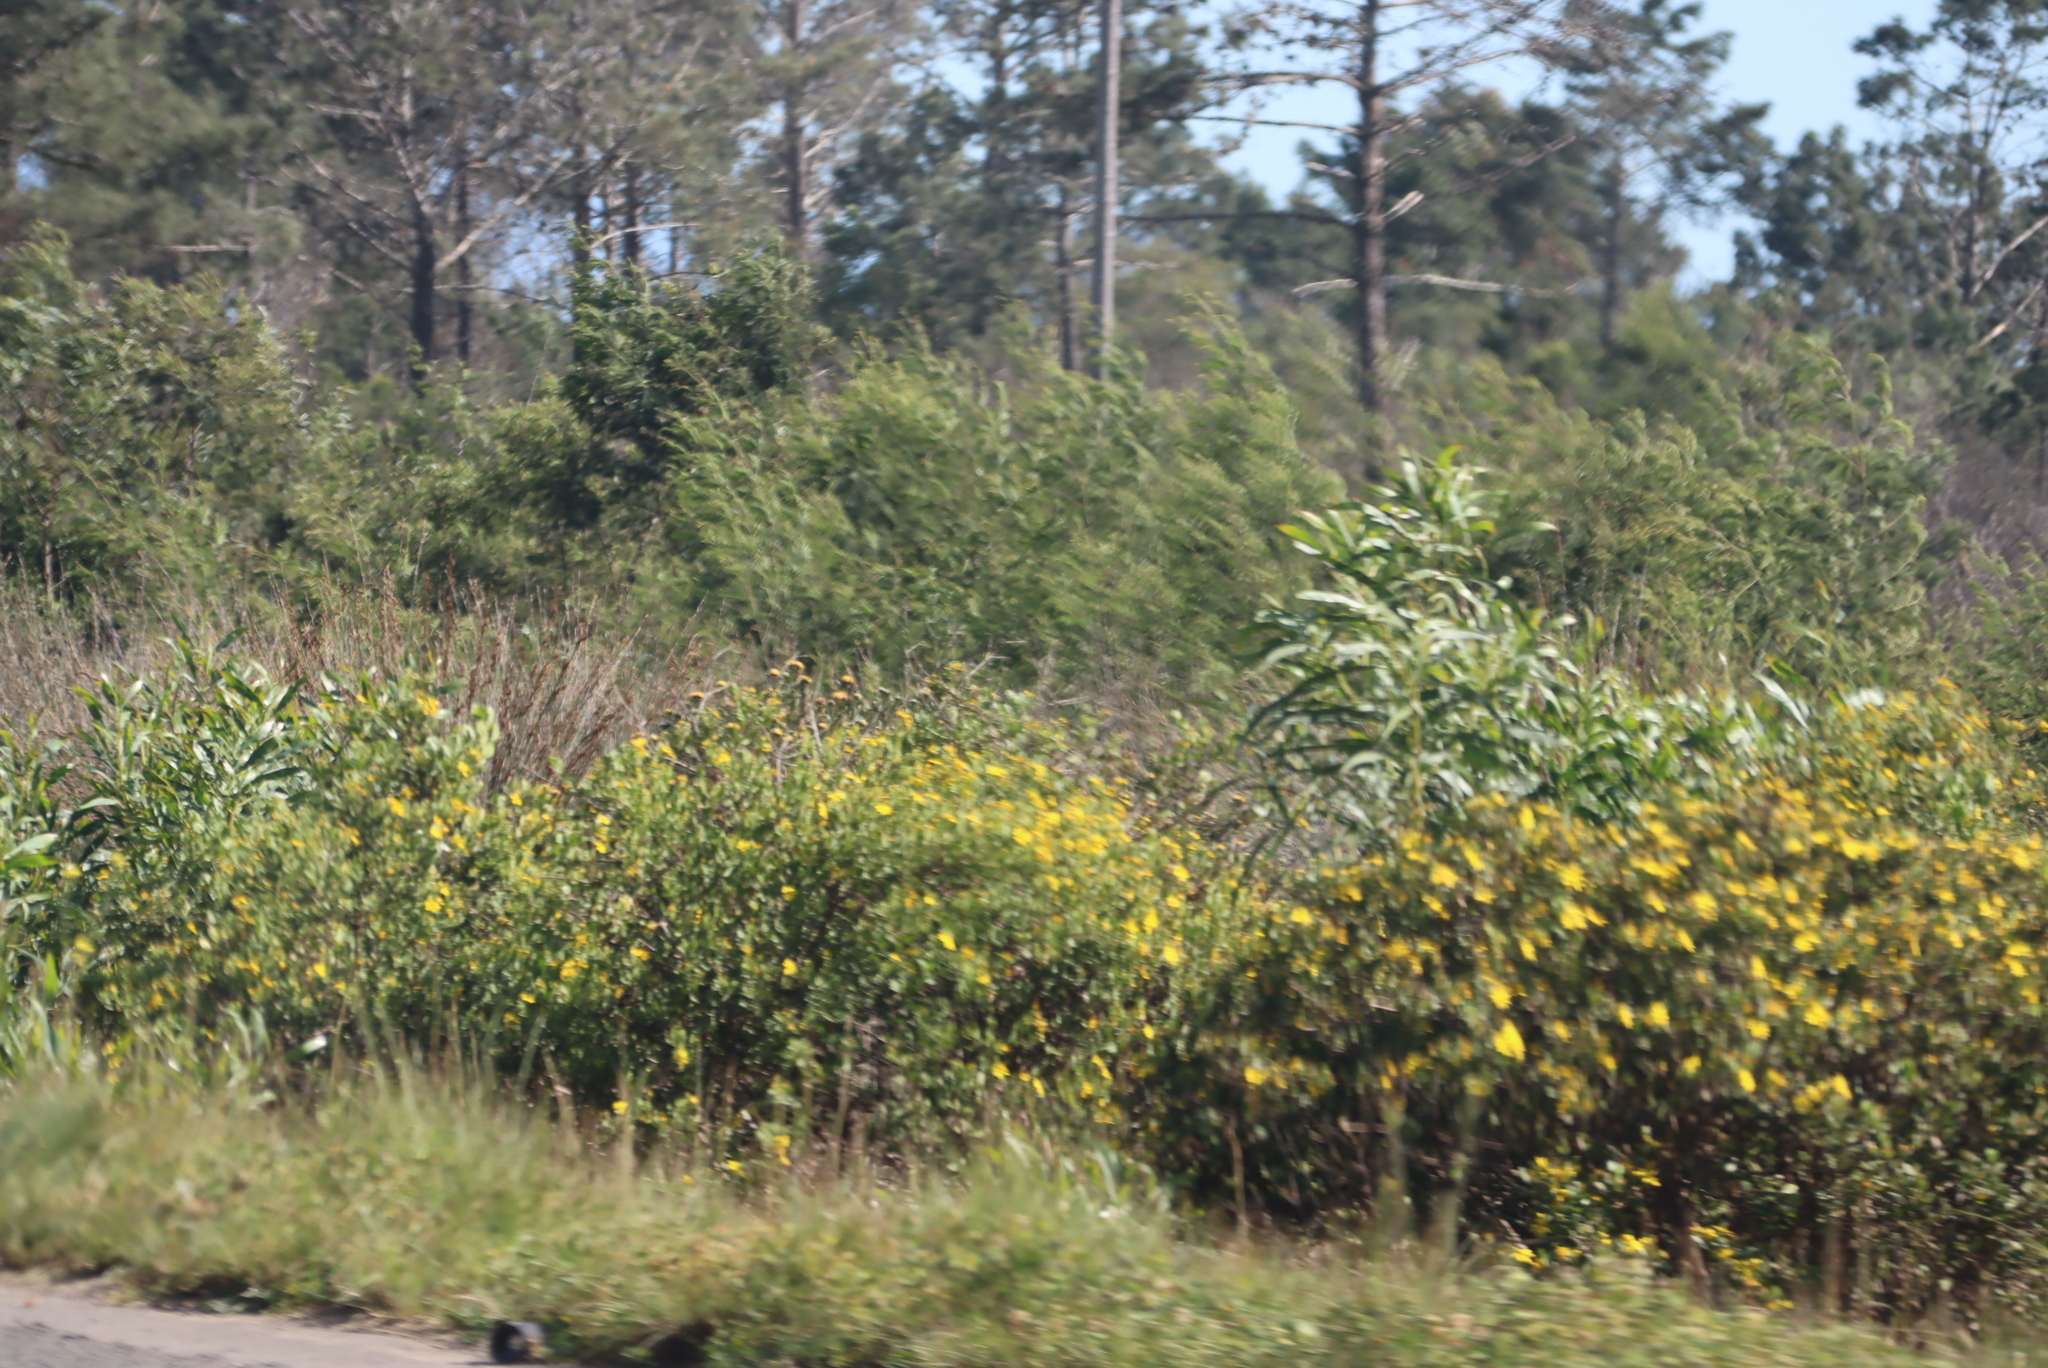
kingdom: Plantae
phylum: Tracheophyta
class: Magnoliopsida
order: Fabales
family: Fabaceae
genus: Acacia
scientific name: Acacia saligna
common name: Orange wattle
